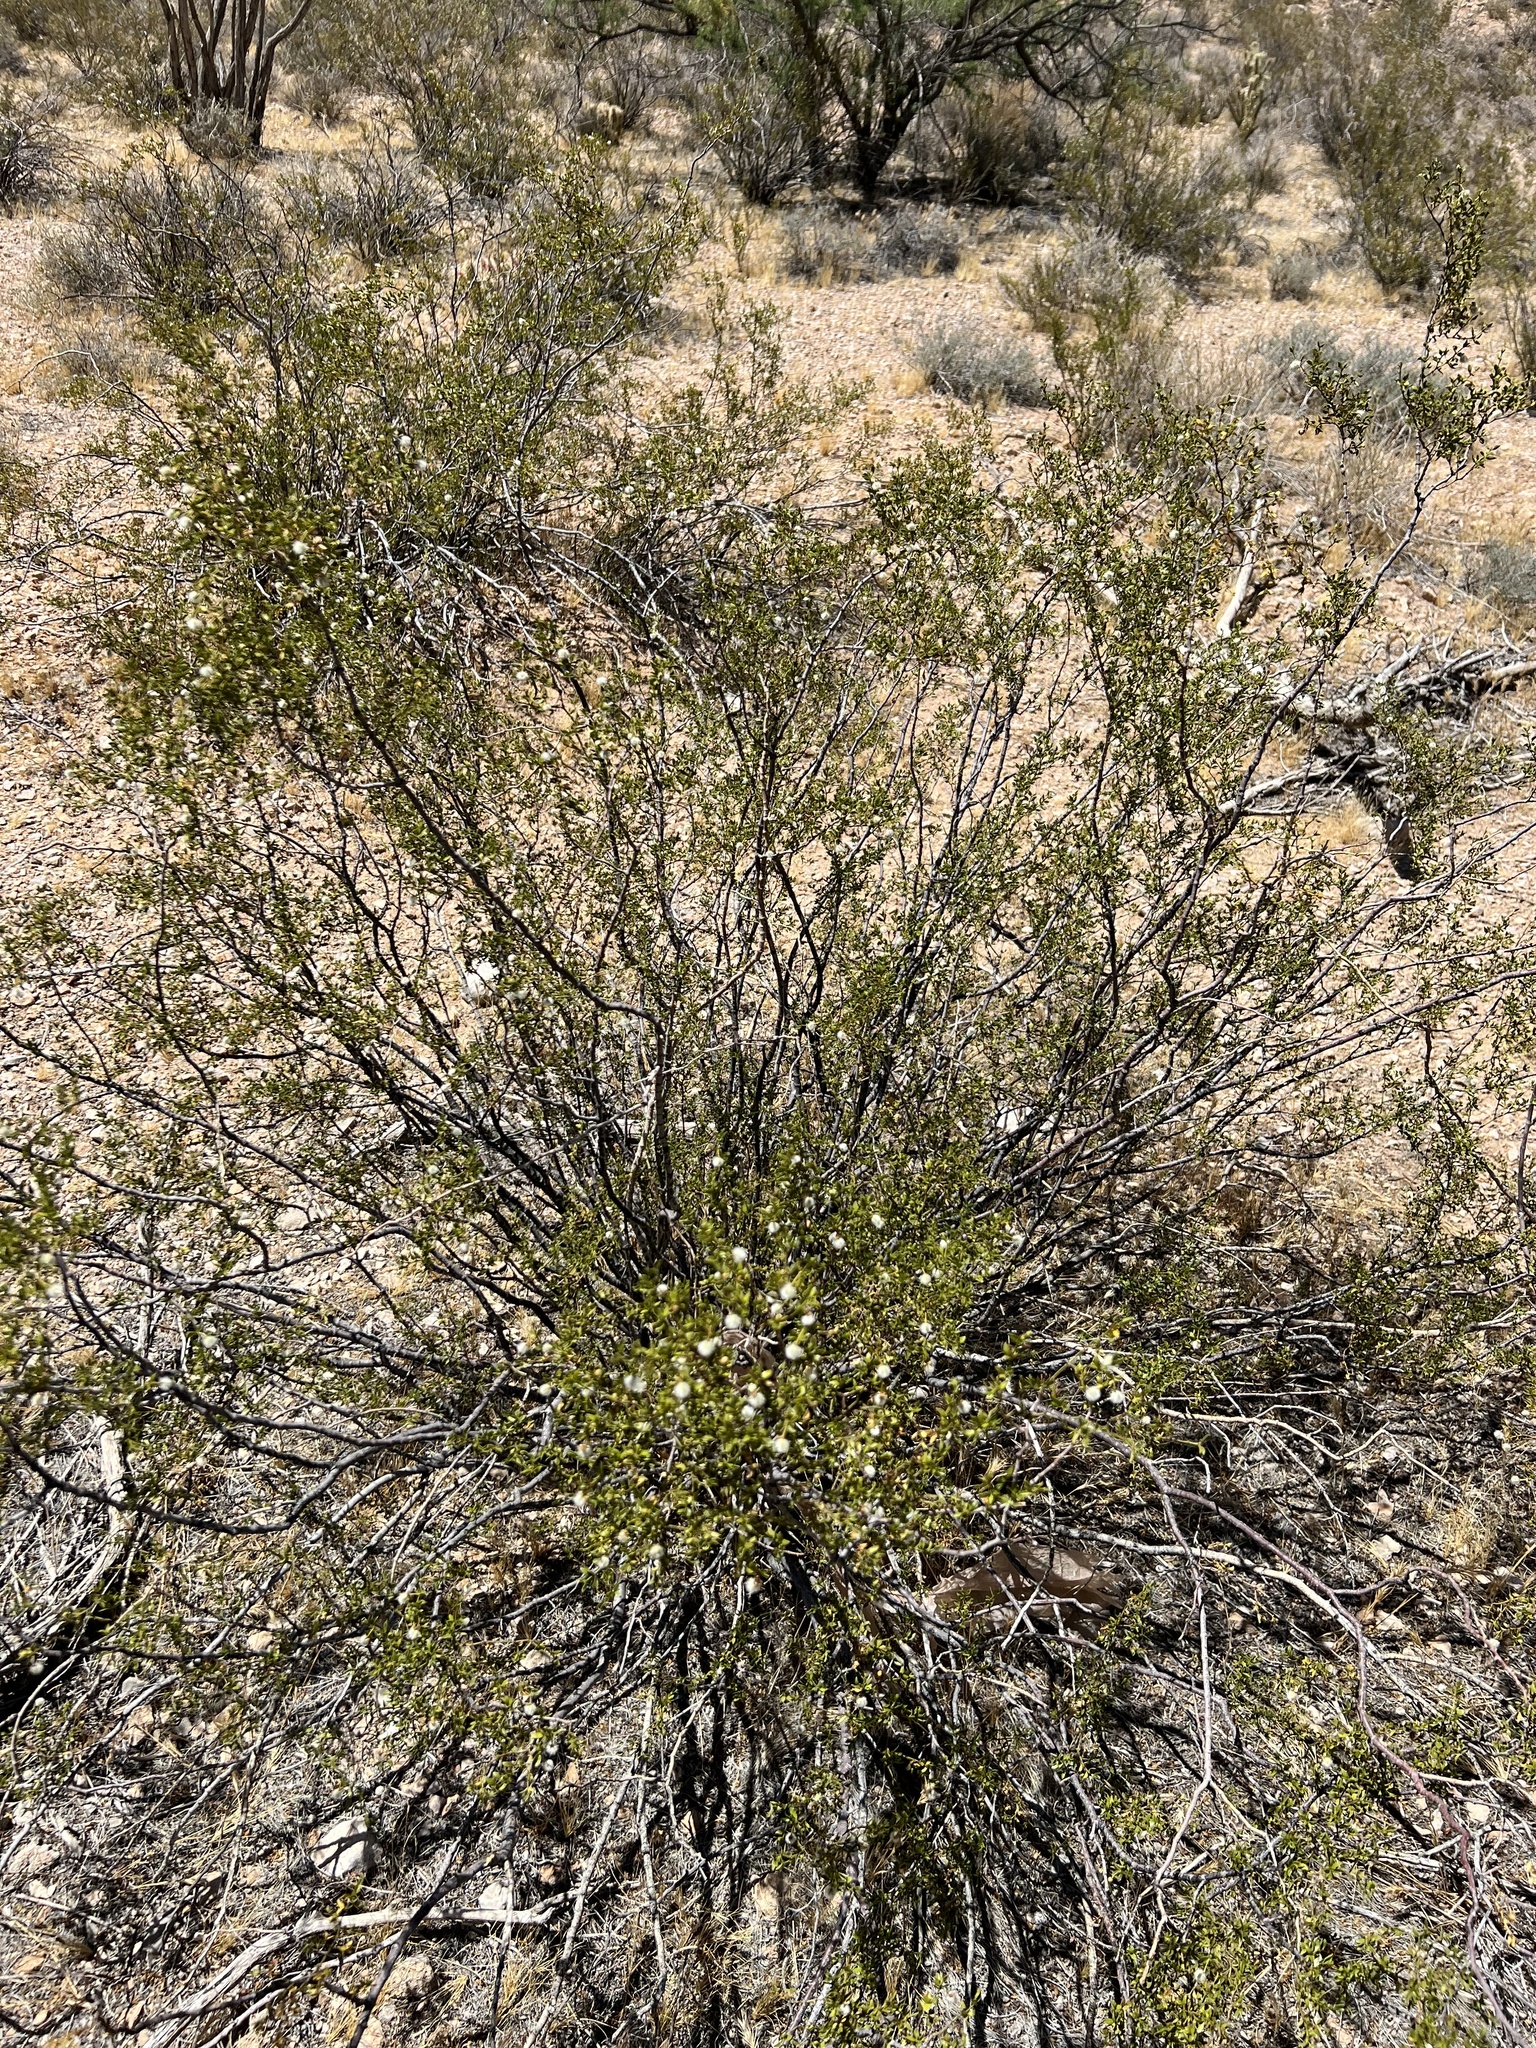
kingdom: Plantae
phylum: Tracheophyta
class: Magnoliopsida
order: Zygophyllales
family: Zygophyllaceae
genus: Larrea
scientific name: Larrea tridentata
